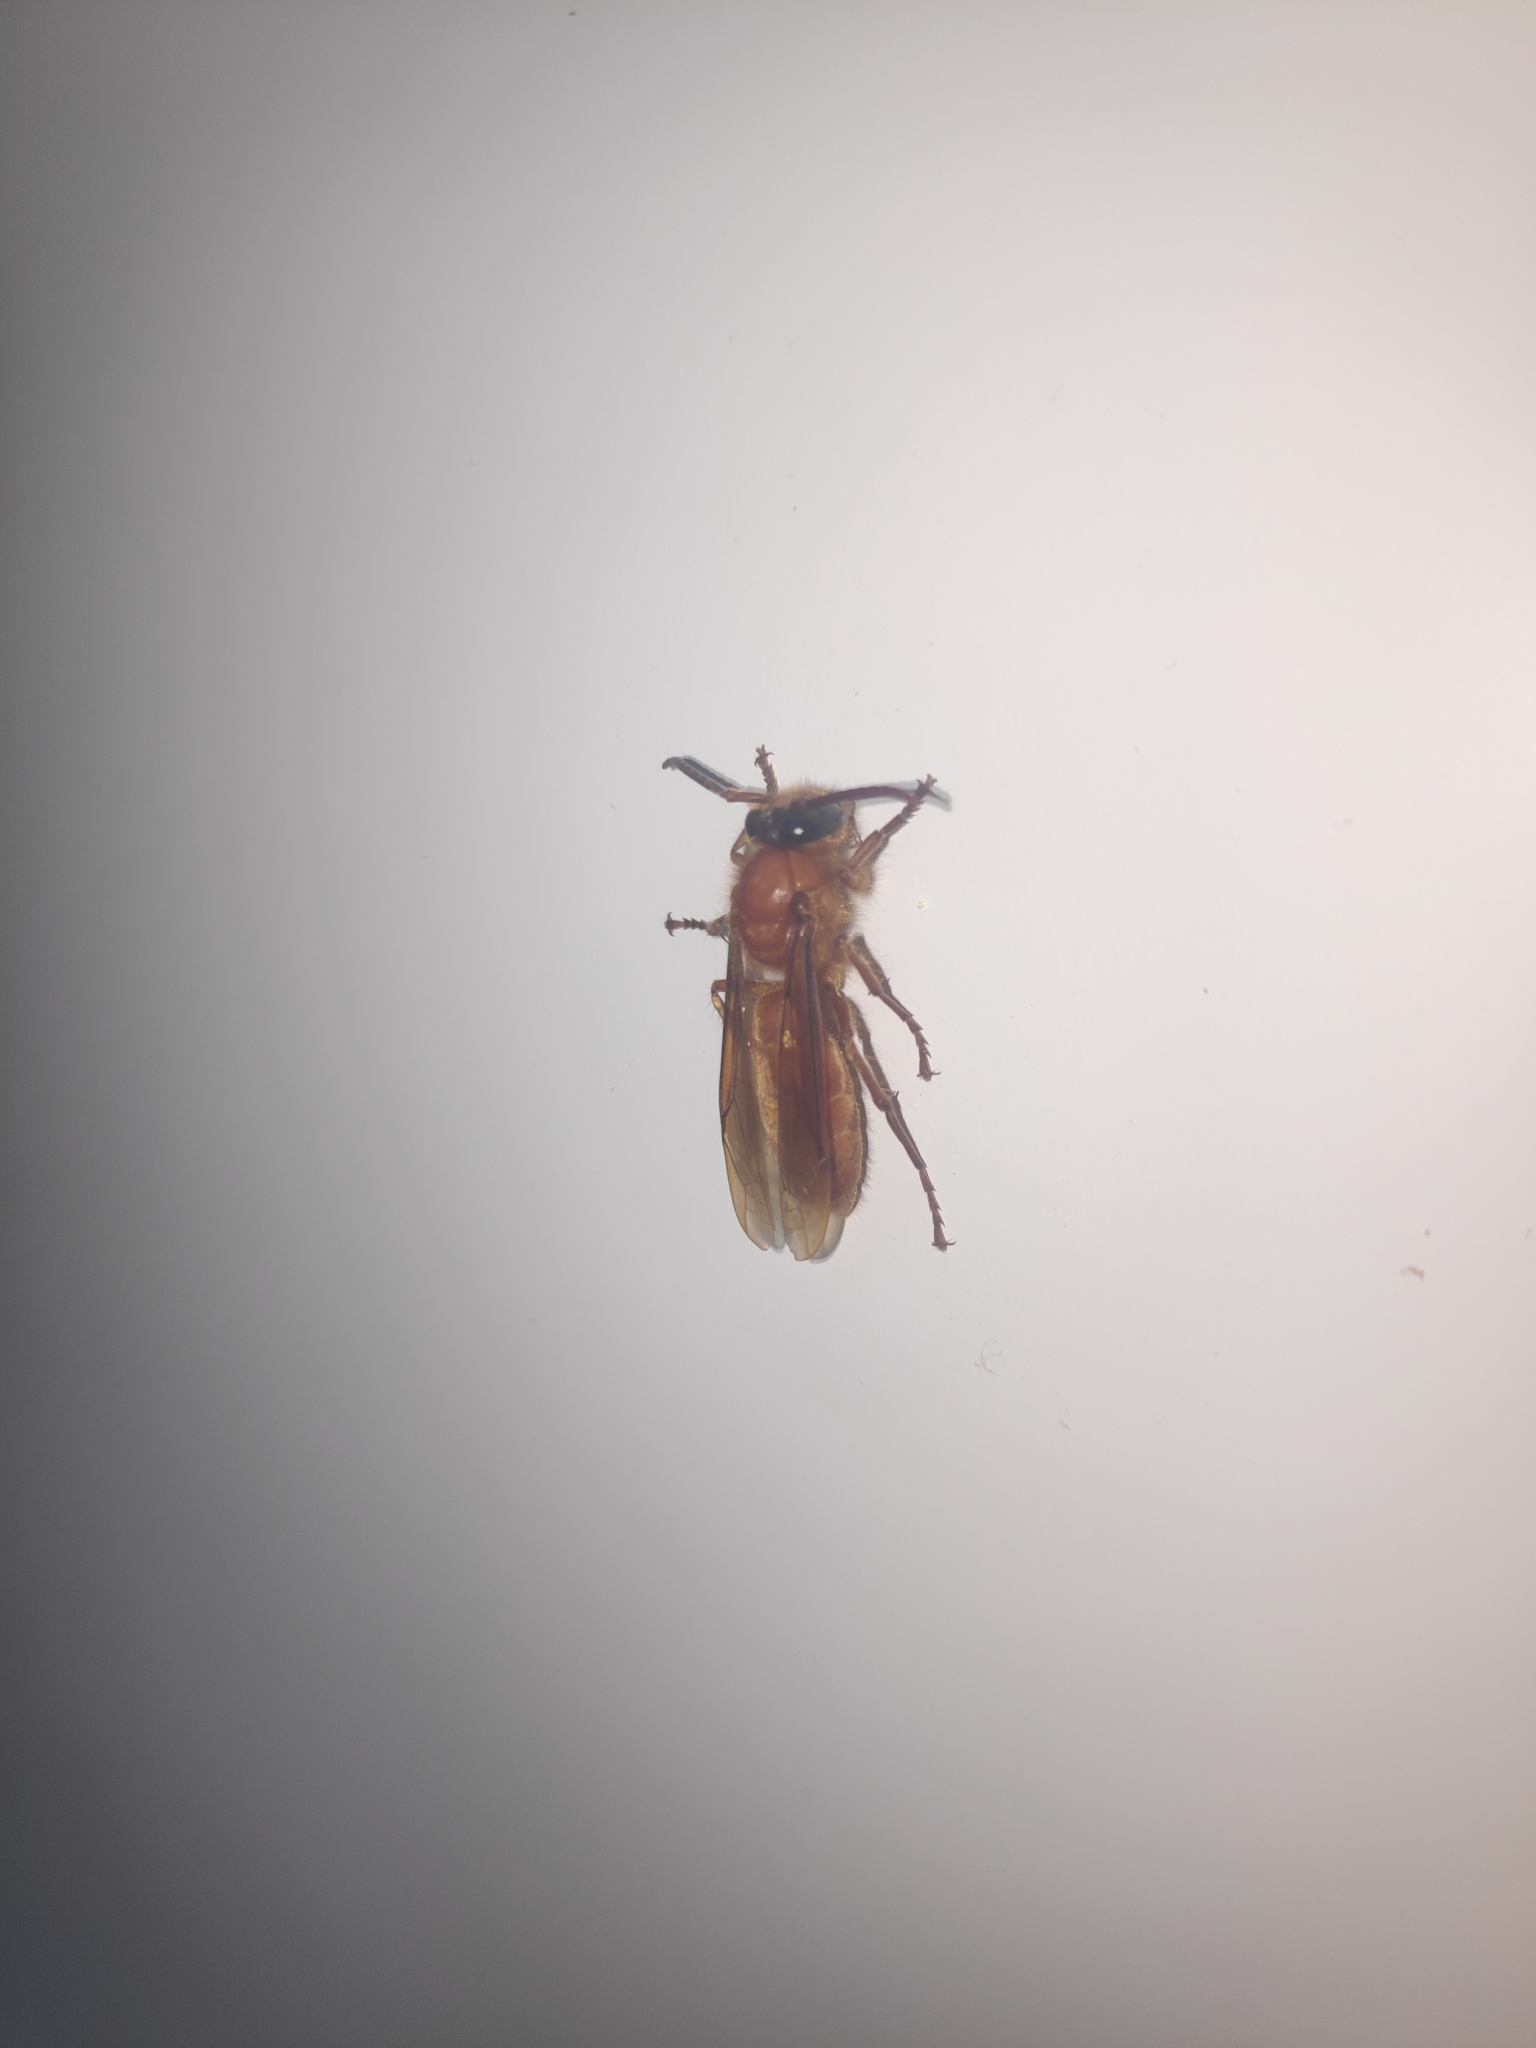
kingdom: Animalia
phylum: Arthropoda
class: Insecta
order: Hymenoptera
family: Vespidae
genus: Provespa
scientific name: Provespa barthelemyi
